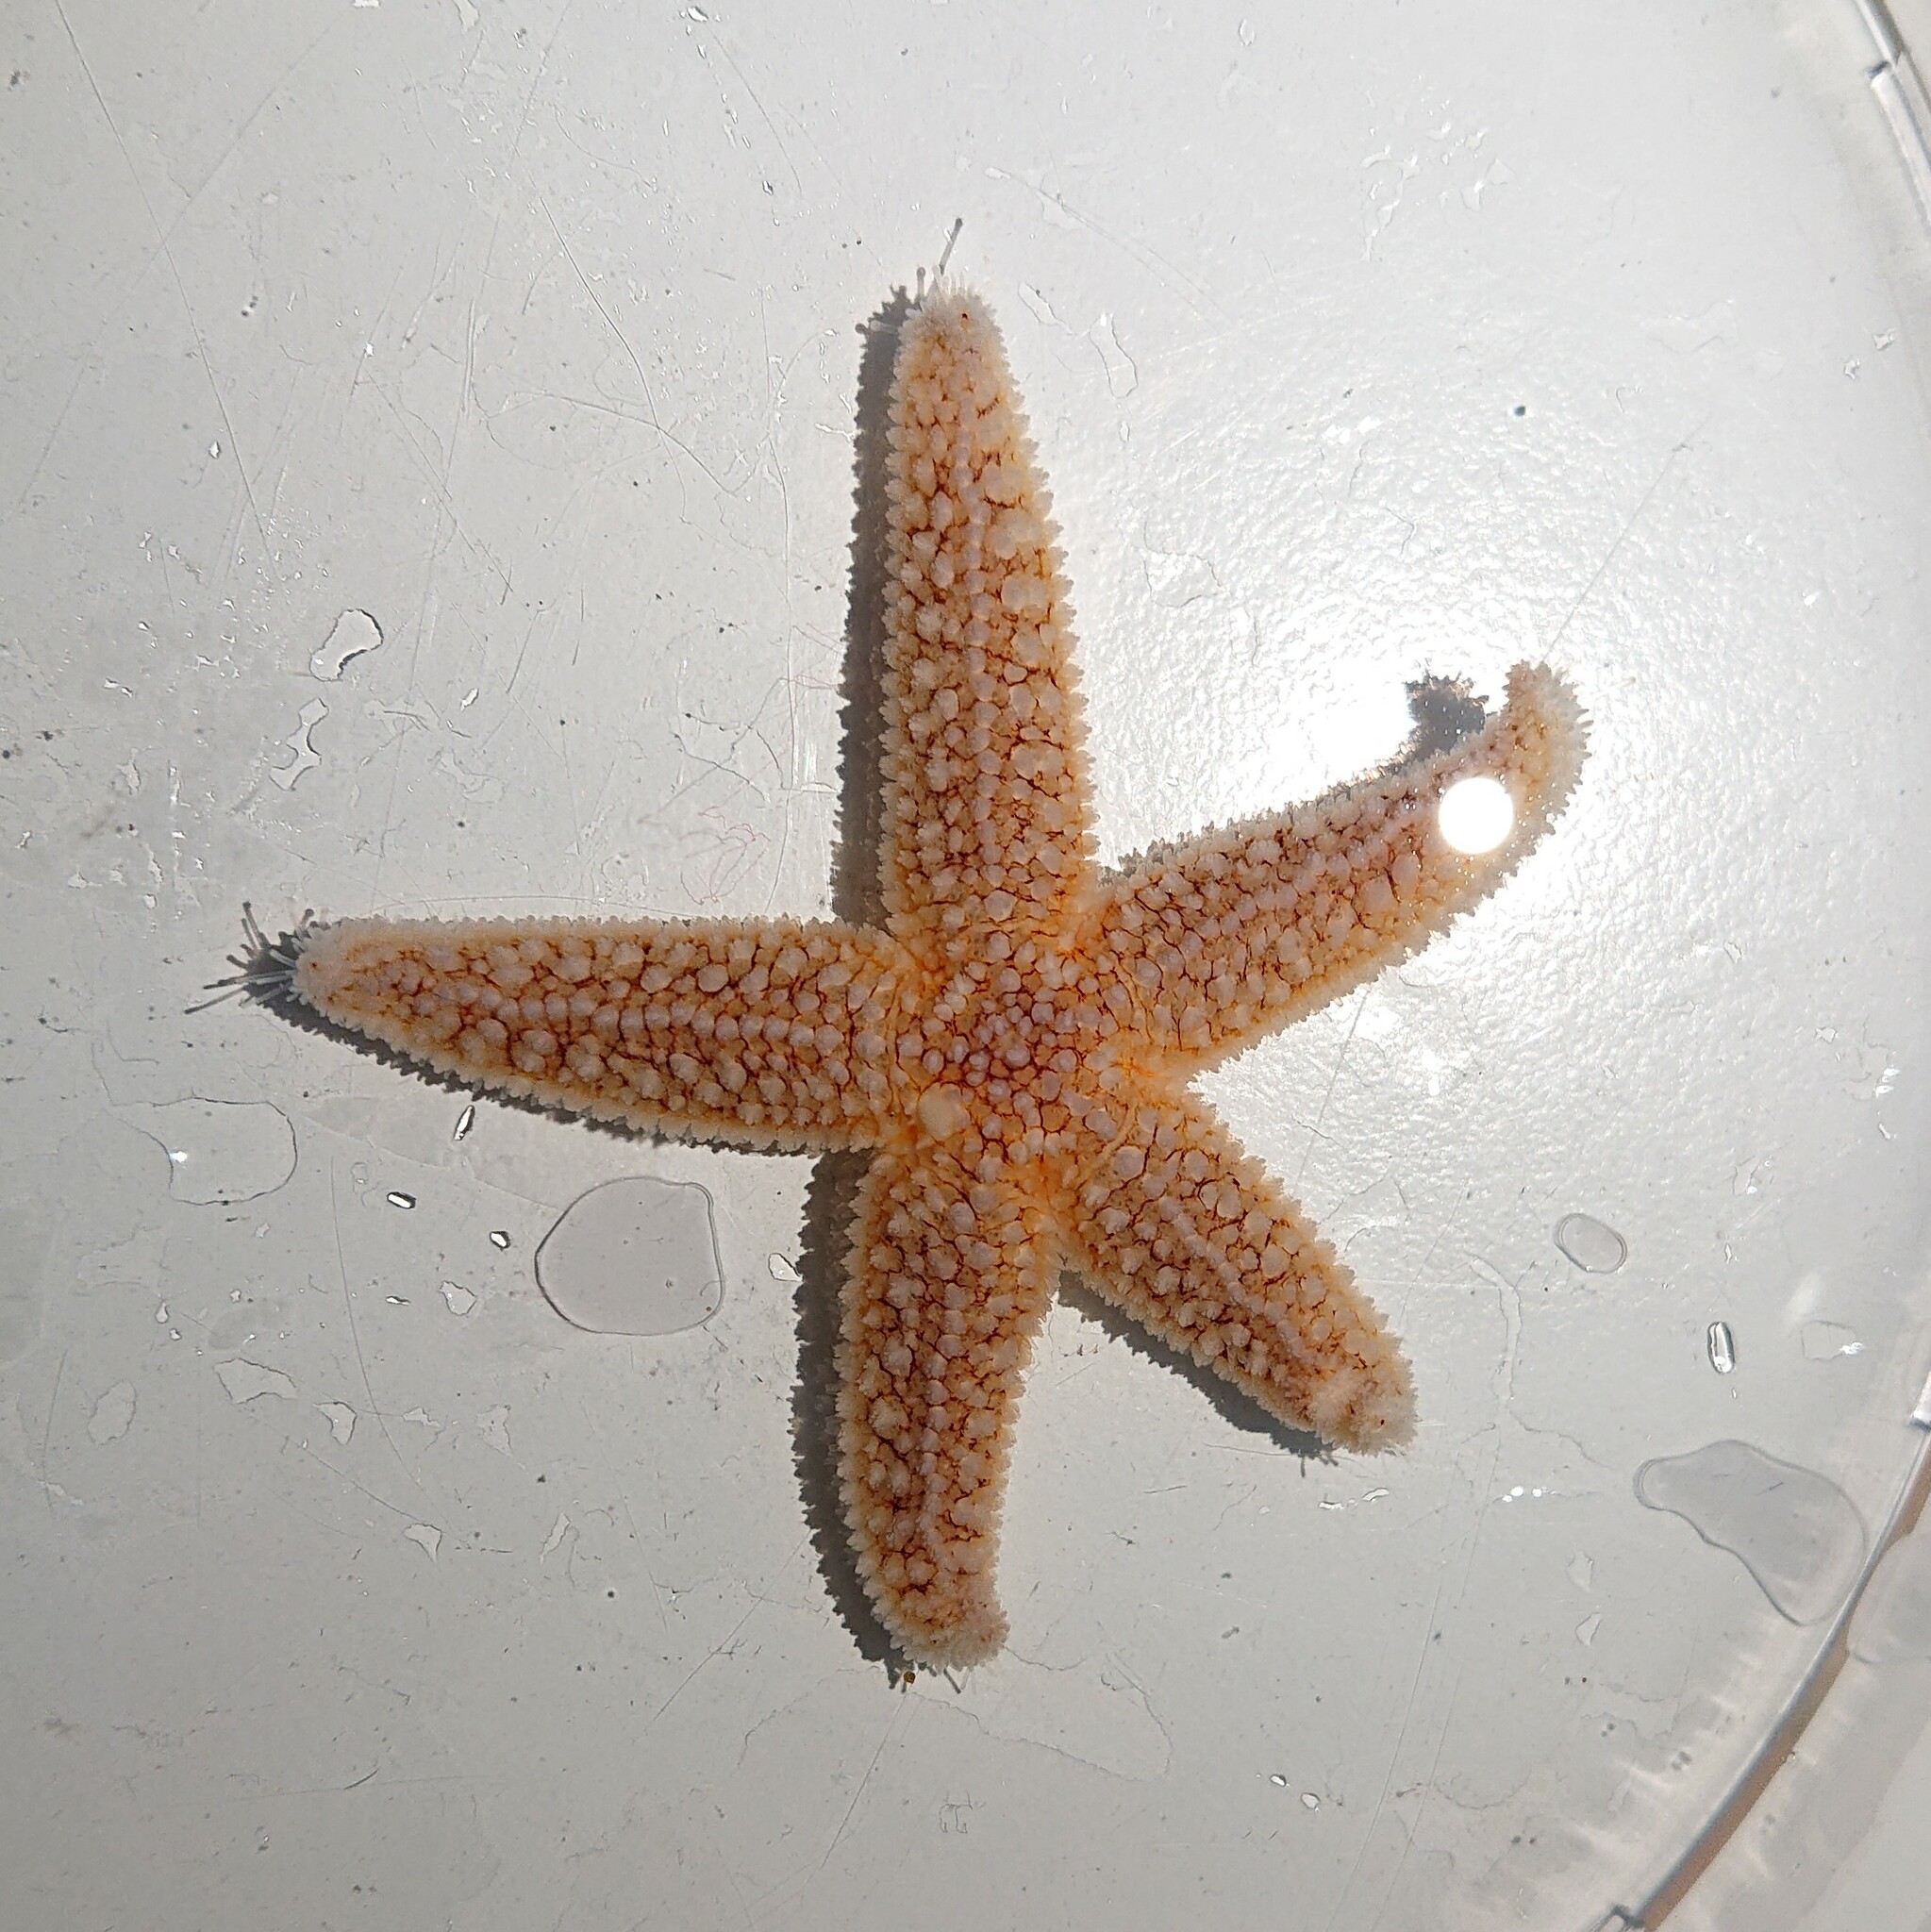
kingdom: Animalia
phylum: Echinodermata
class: Asteroidea
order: Forcipulatida
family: Asteriidae
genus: Asterias
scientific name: Asterias rubens
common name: Common starfish
